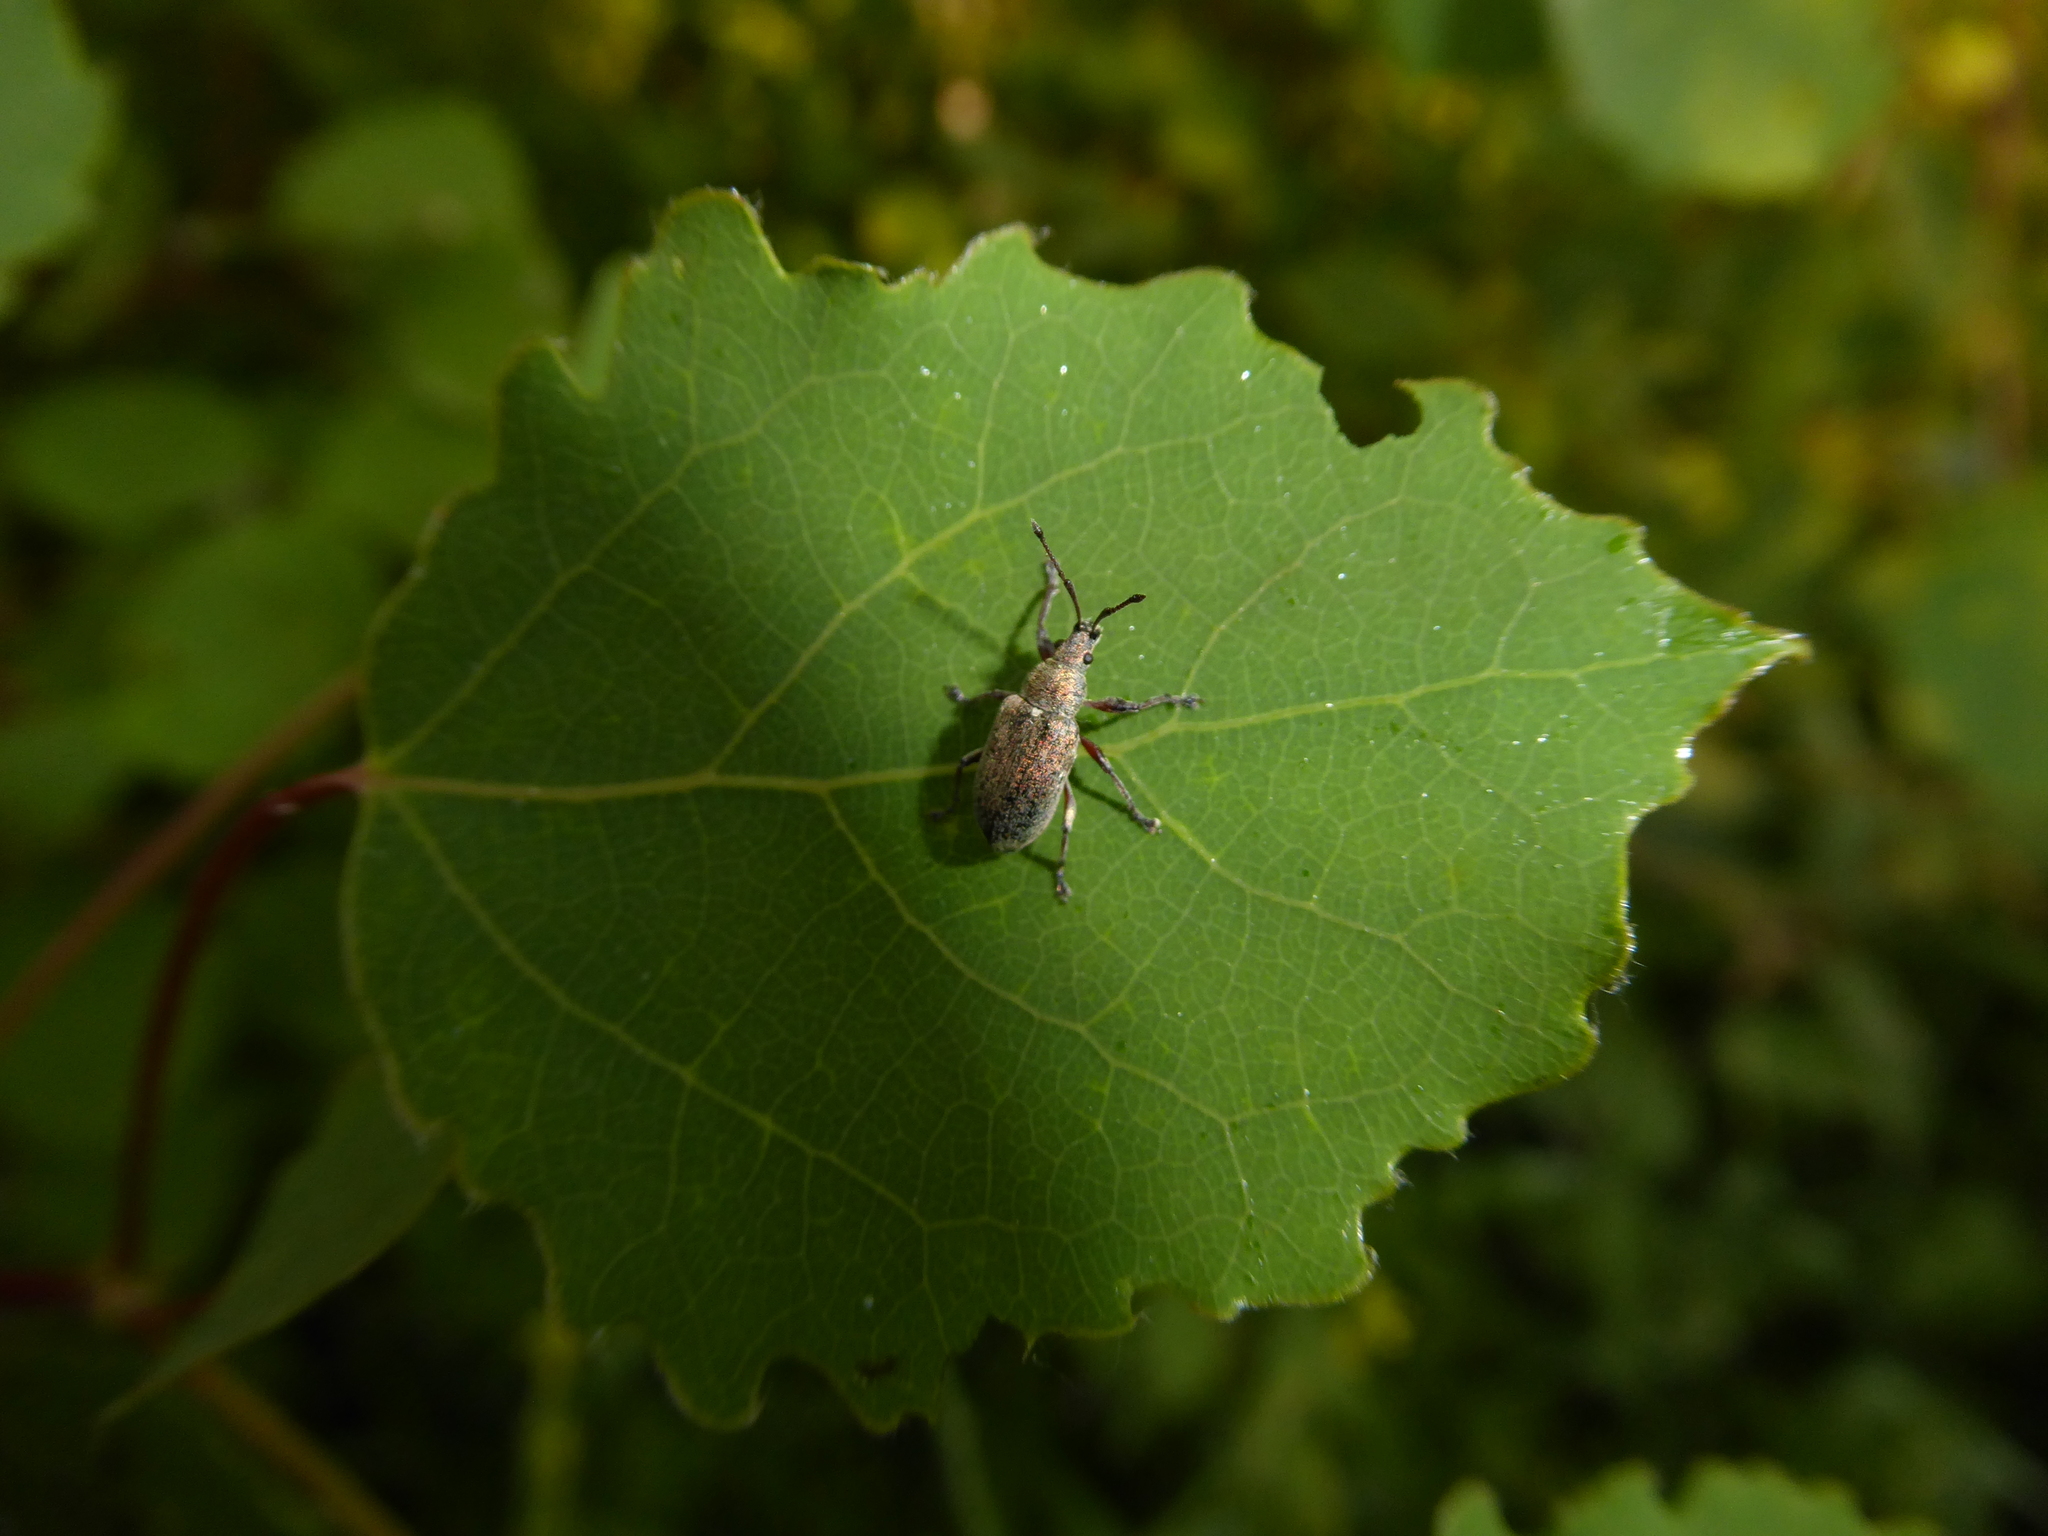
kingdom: Animalia
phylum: Arthropoda
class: Insecta
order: Coleoptera
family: Curculionidae
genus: Phyllobius
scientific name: Phyllobius pyri
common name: Common leaf weevil
